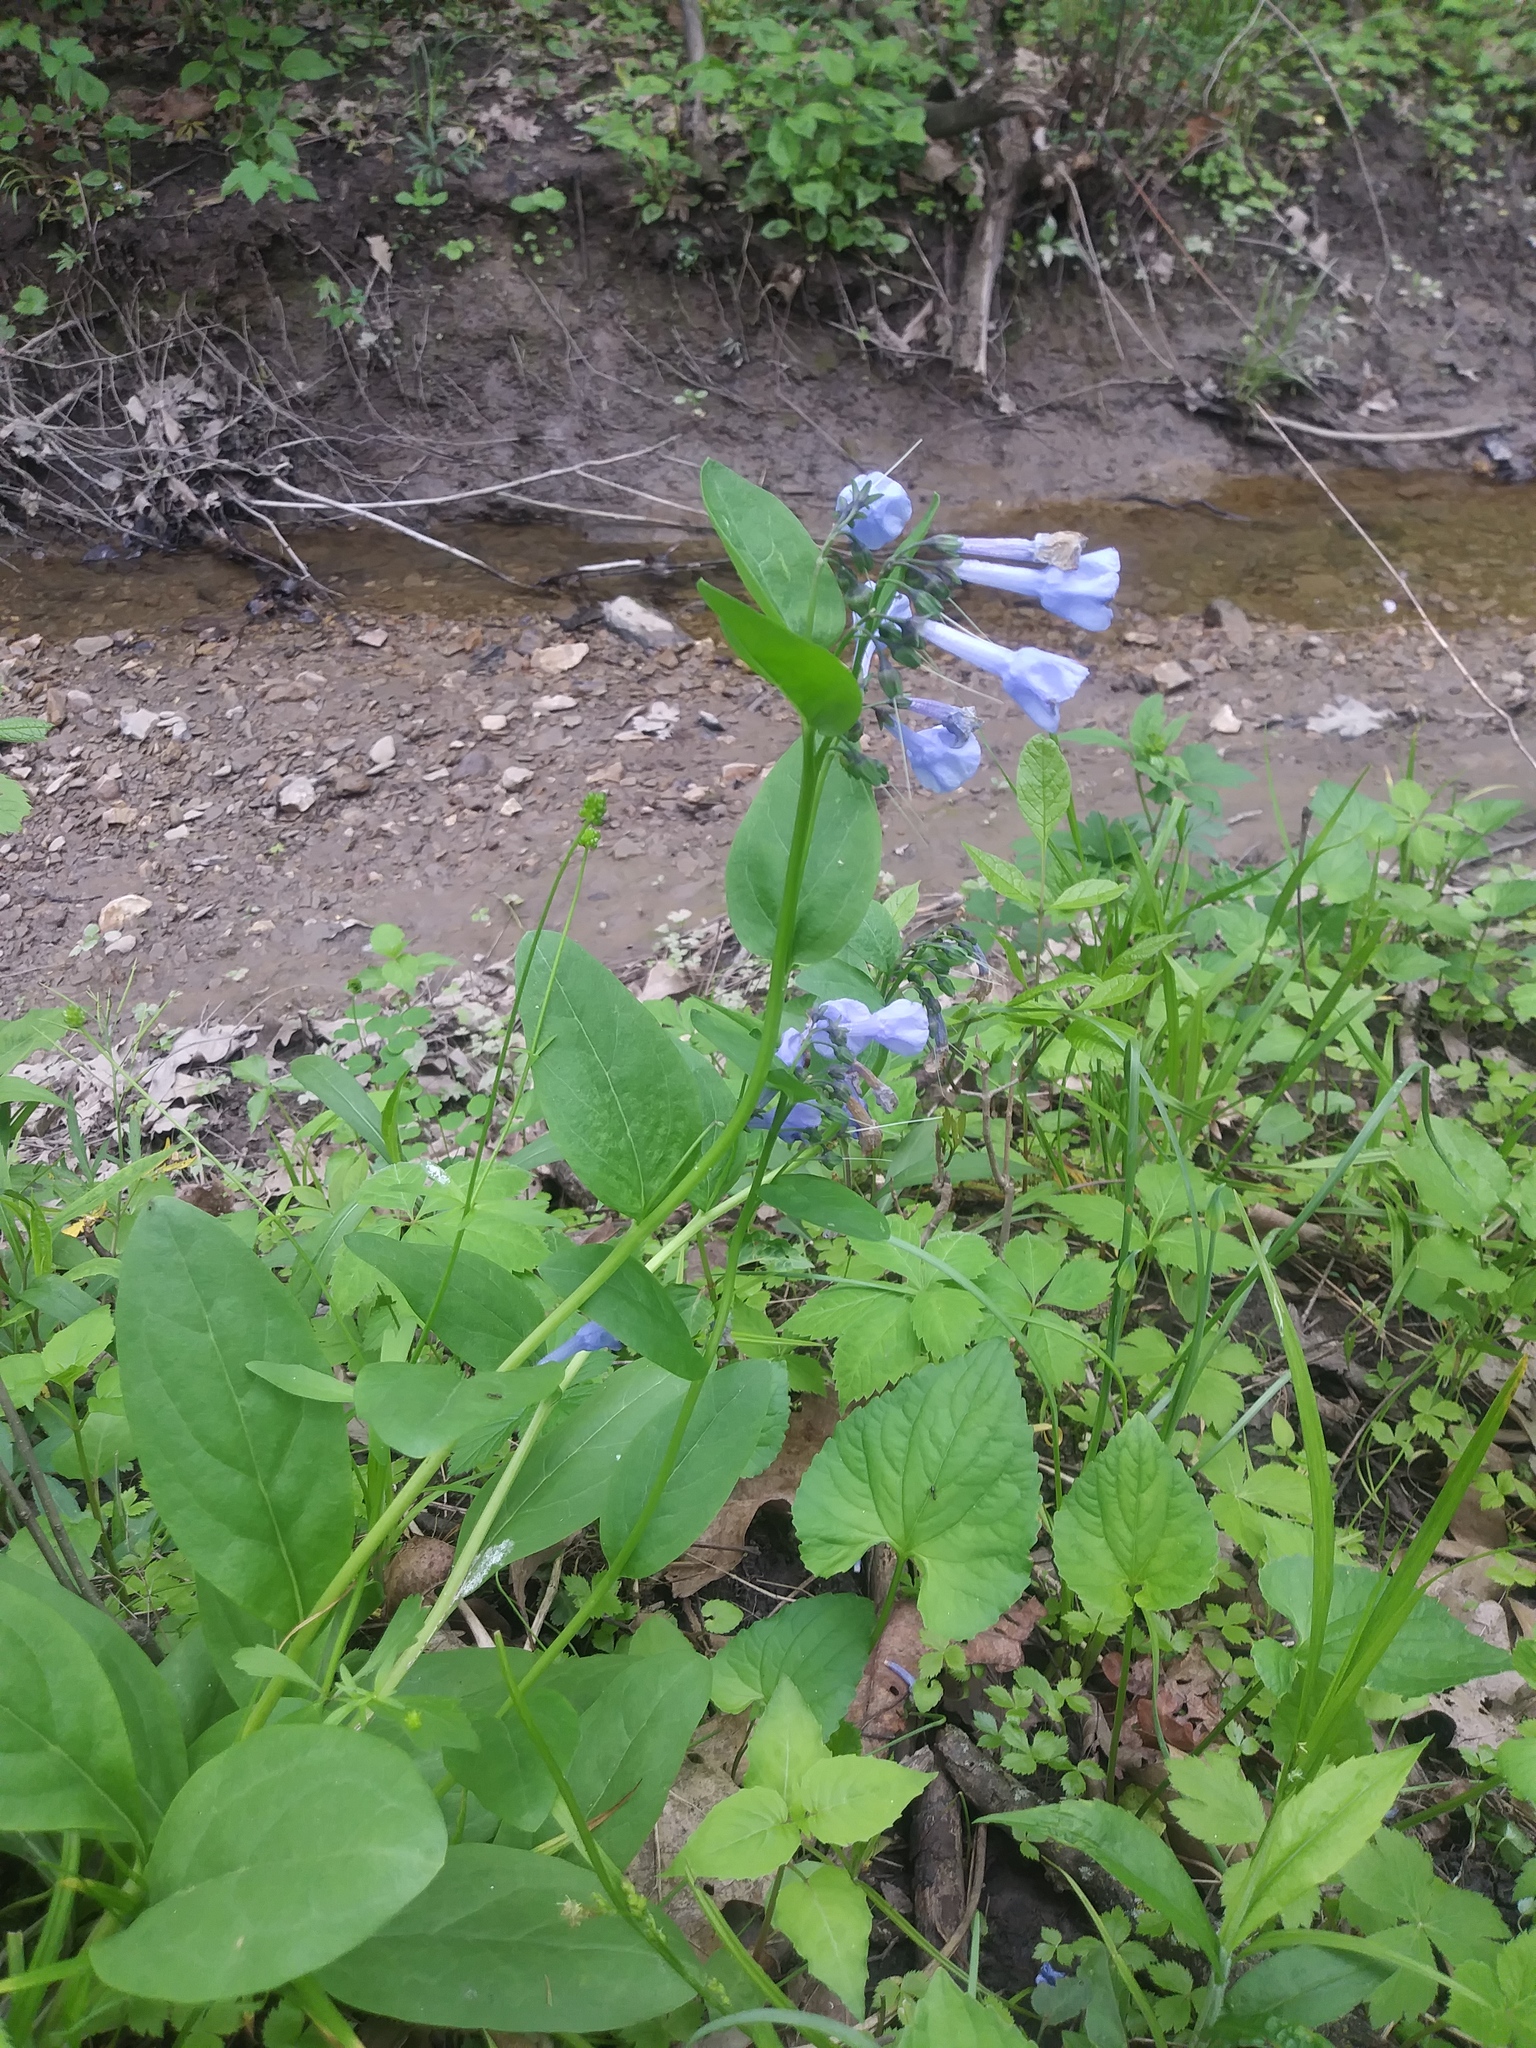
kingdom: Plantae
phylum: Tracheophyta
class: Magnoliopsida
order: Boraginales
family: Boraginaceae
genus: Mertensia
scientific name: Mertensia virginica
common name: Virginia bluebells
